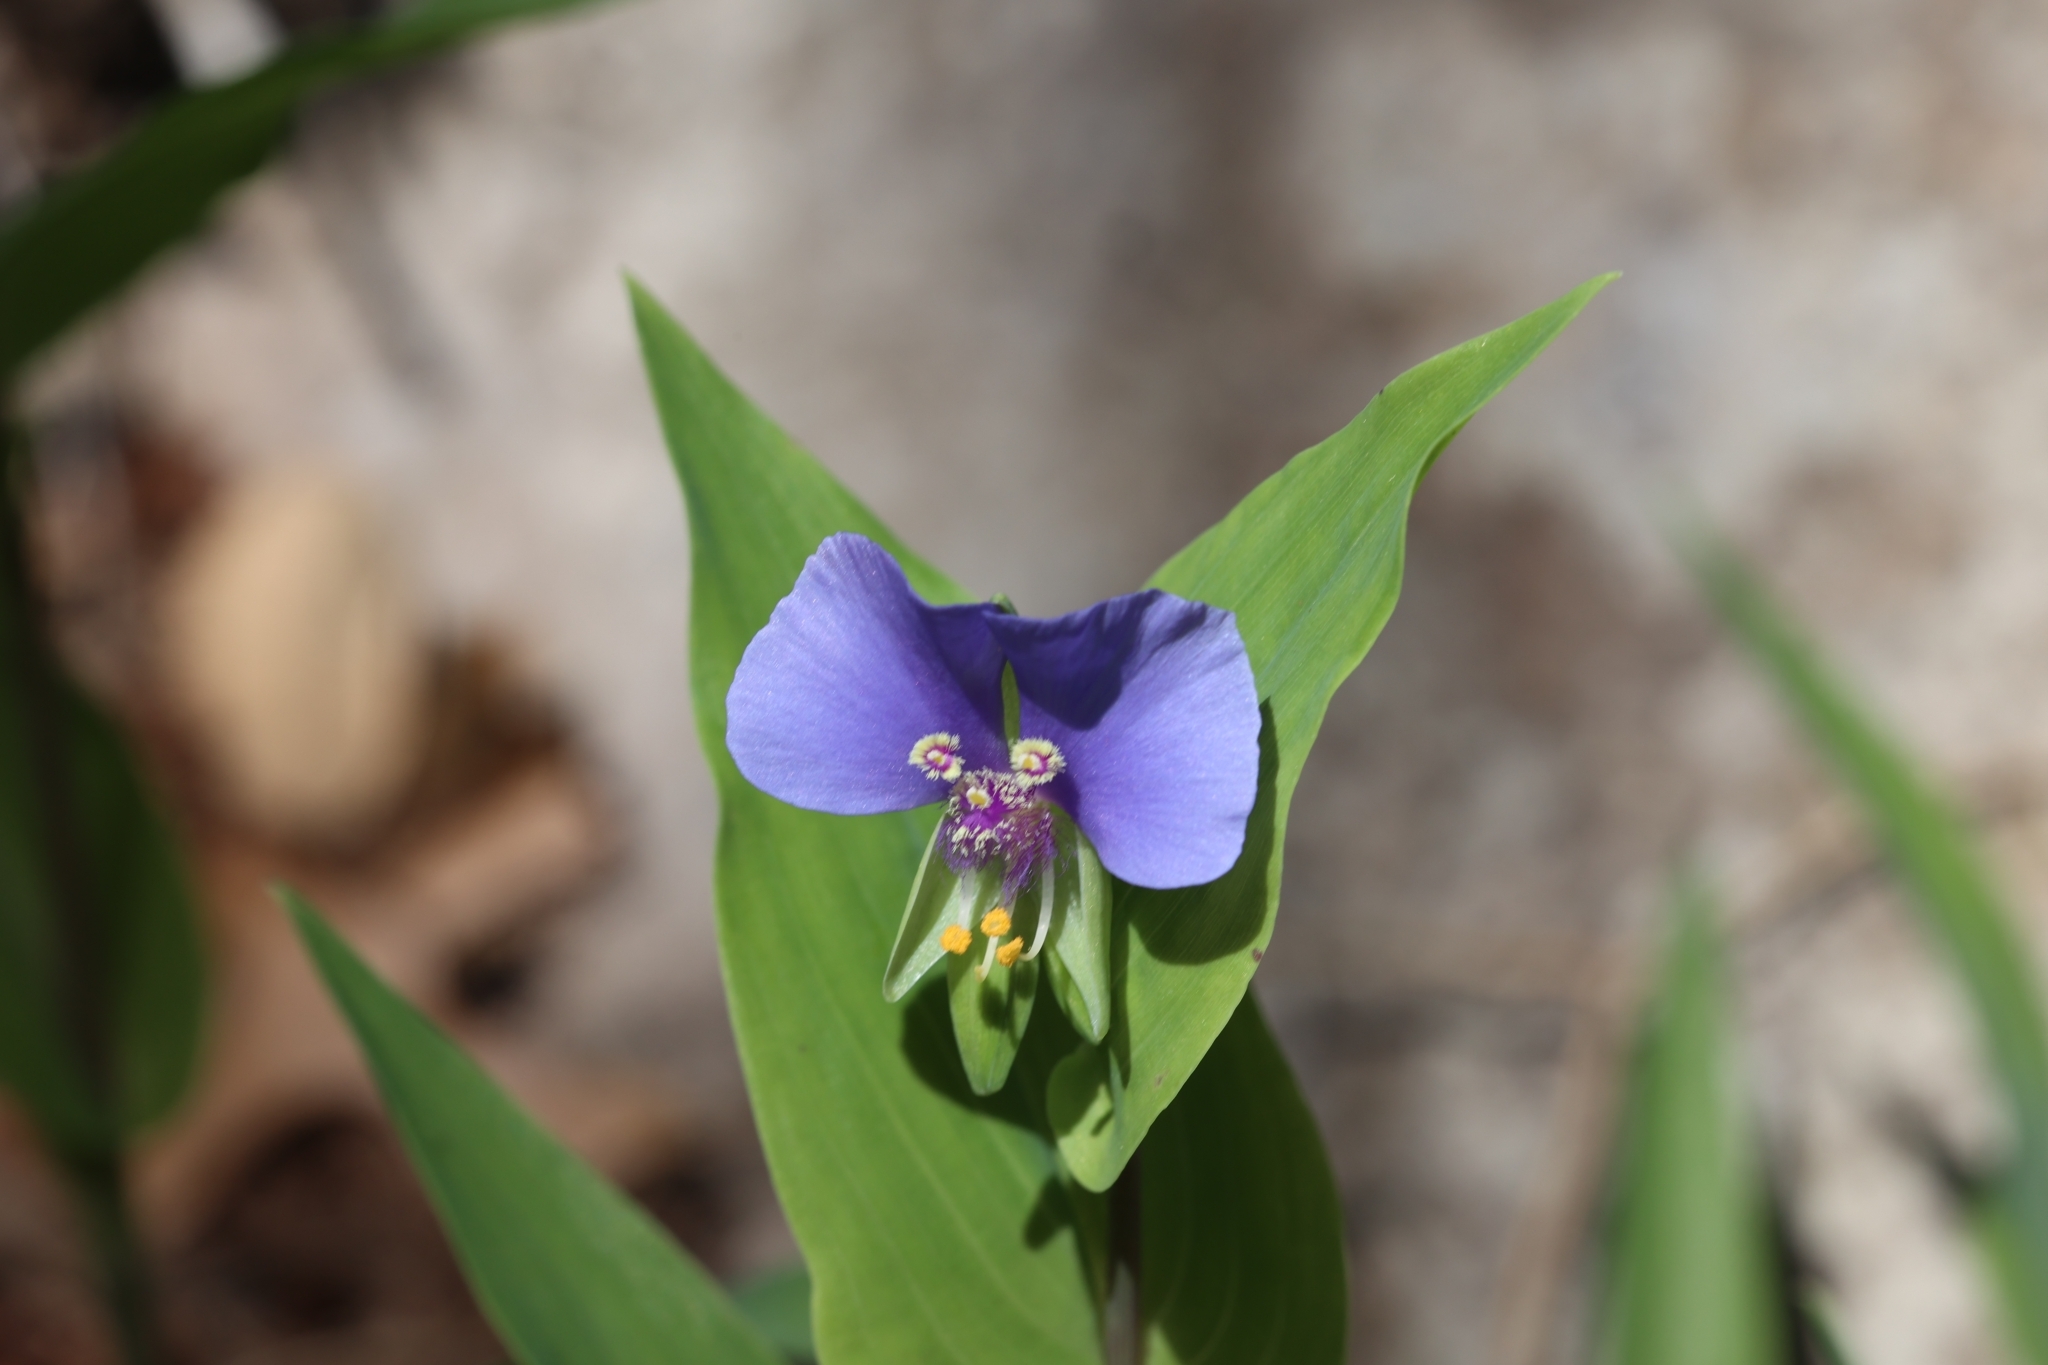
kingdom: Plantae
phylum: Tracheophyta
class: Liliopsida
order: Commelinales
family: Commelinaceae
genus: Tinantia
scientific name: Tinantia anomala
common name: False dayflower
